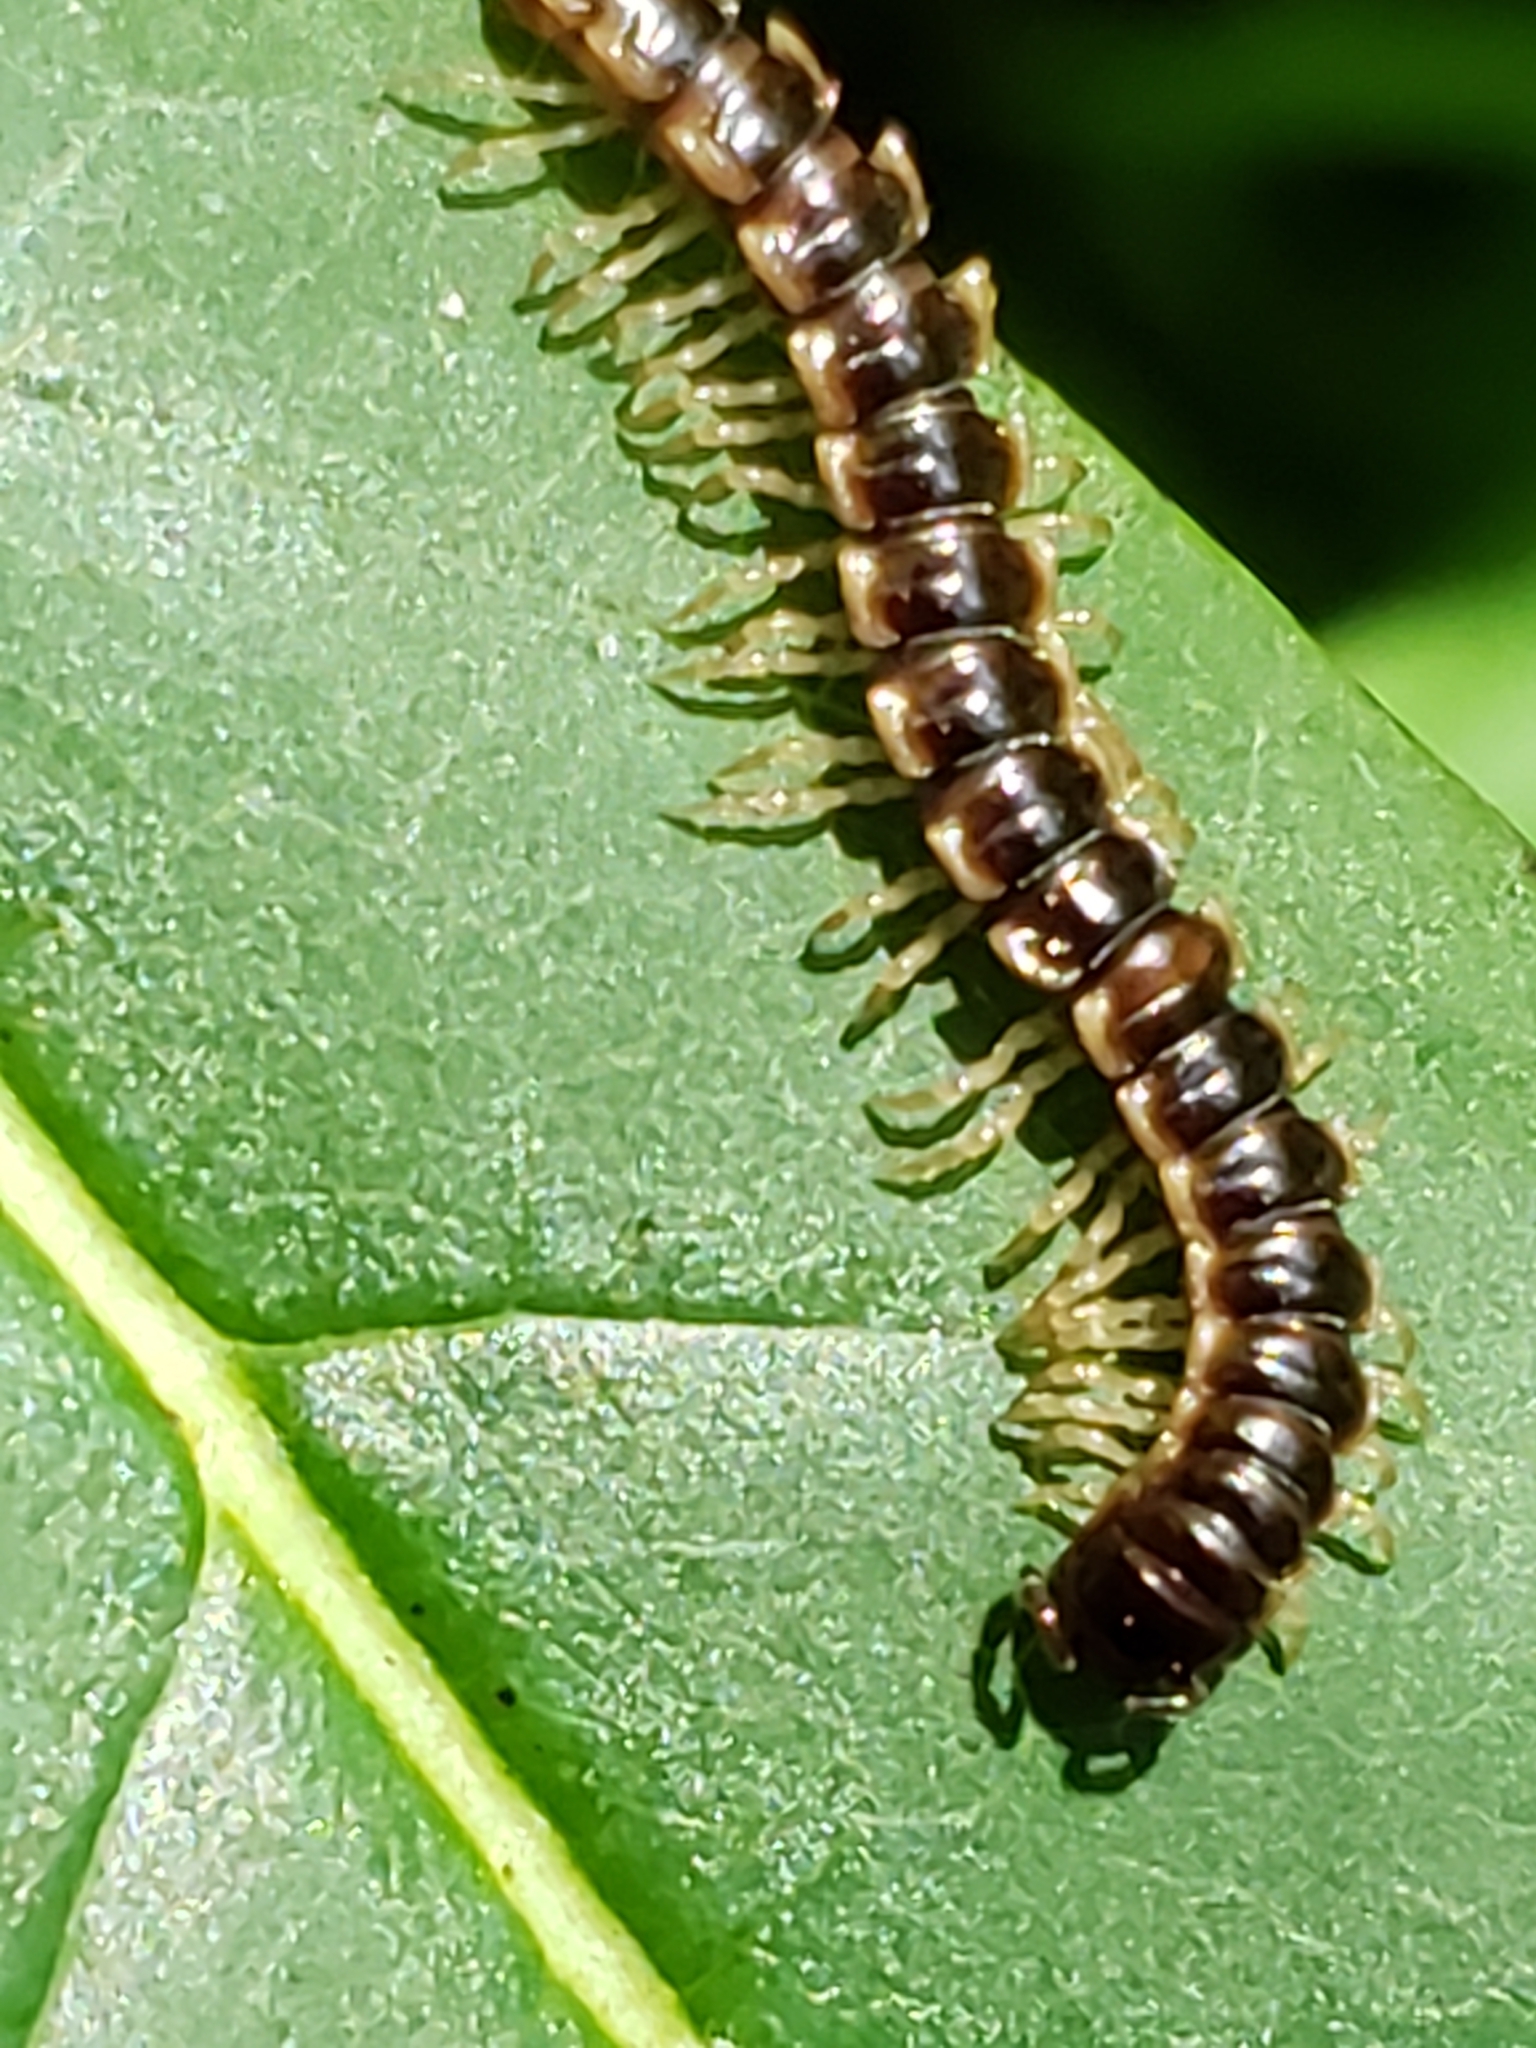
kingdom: Animalia
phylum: Arthropoda
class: Diplopoda
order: Polydesmida
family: Paradoxosomatidae
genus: Oxidus
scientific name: Oxidus gracilis
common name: Greenhouse millipede
